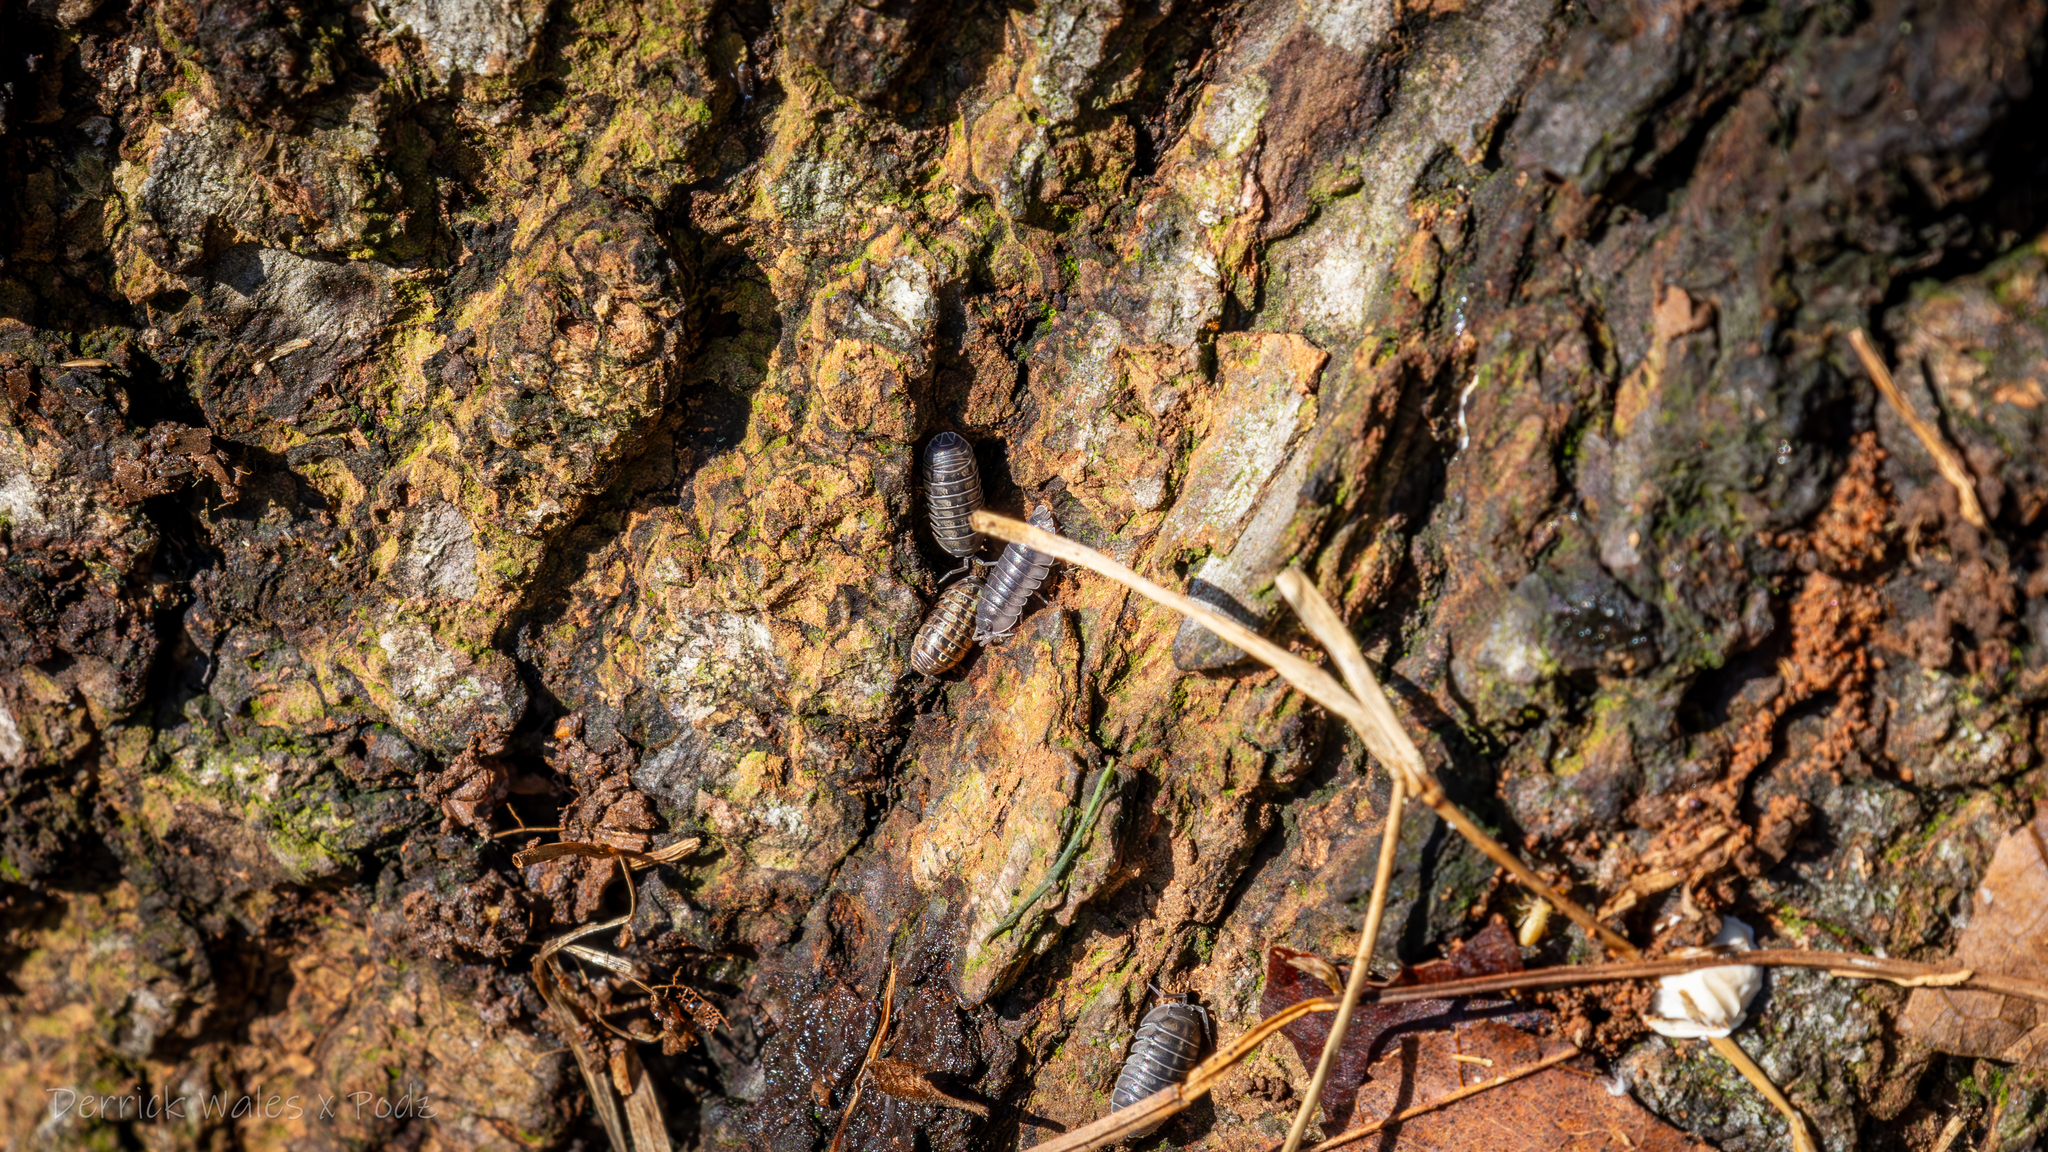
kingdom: Animalia
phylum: Arthropoda
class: Malacostraca
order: Isopoda
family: Armadillidiidae
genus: Armadillidium
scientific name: Armadillidium nasatum
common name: Isopod
